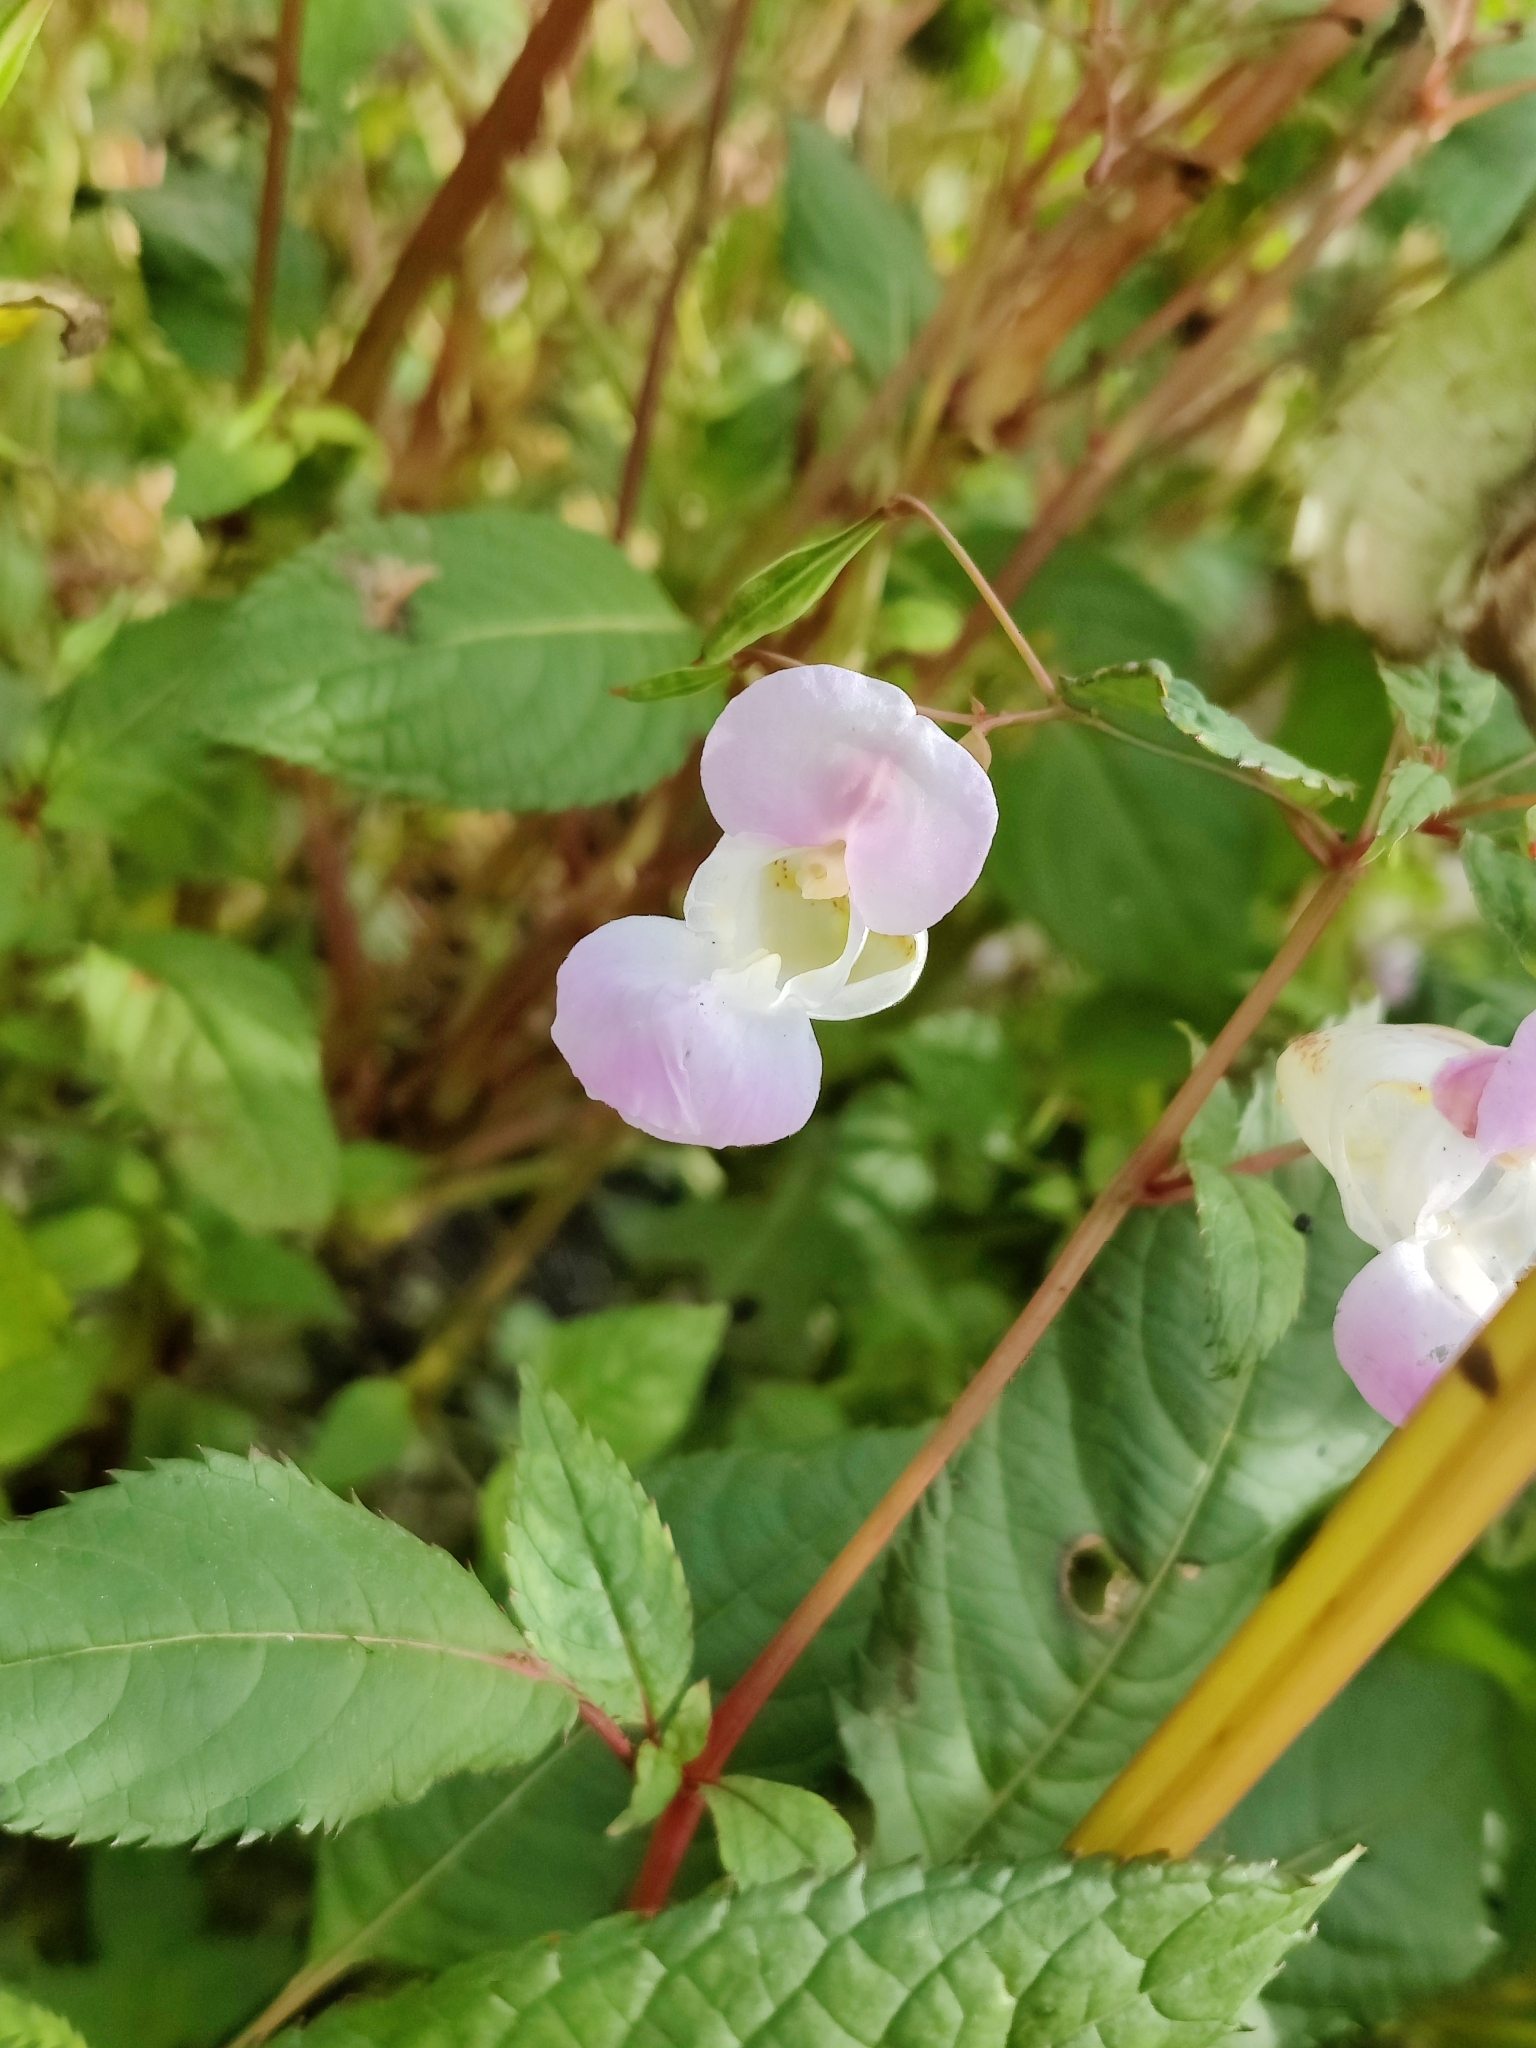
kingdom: Plantae
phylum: Tracheophyta
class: Magnoliopsida
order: Ericales
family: Balsaminaceae
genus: Impatiens
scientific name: Impatiens glandulifera
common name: Himalayan balsam
